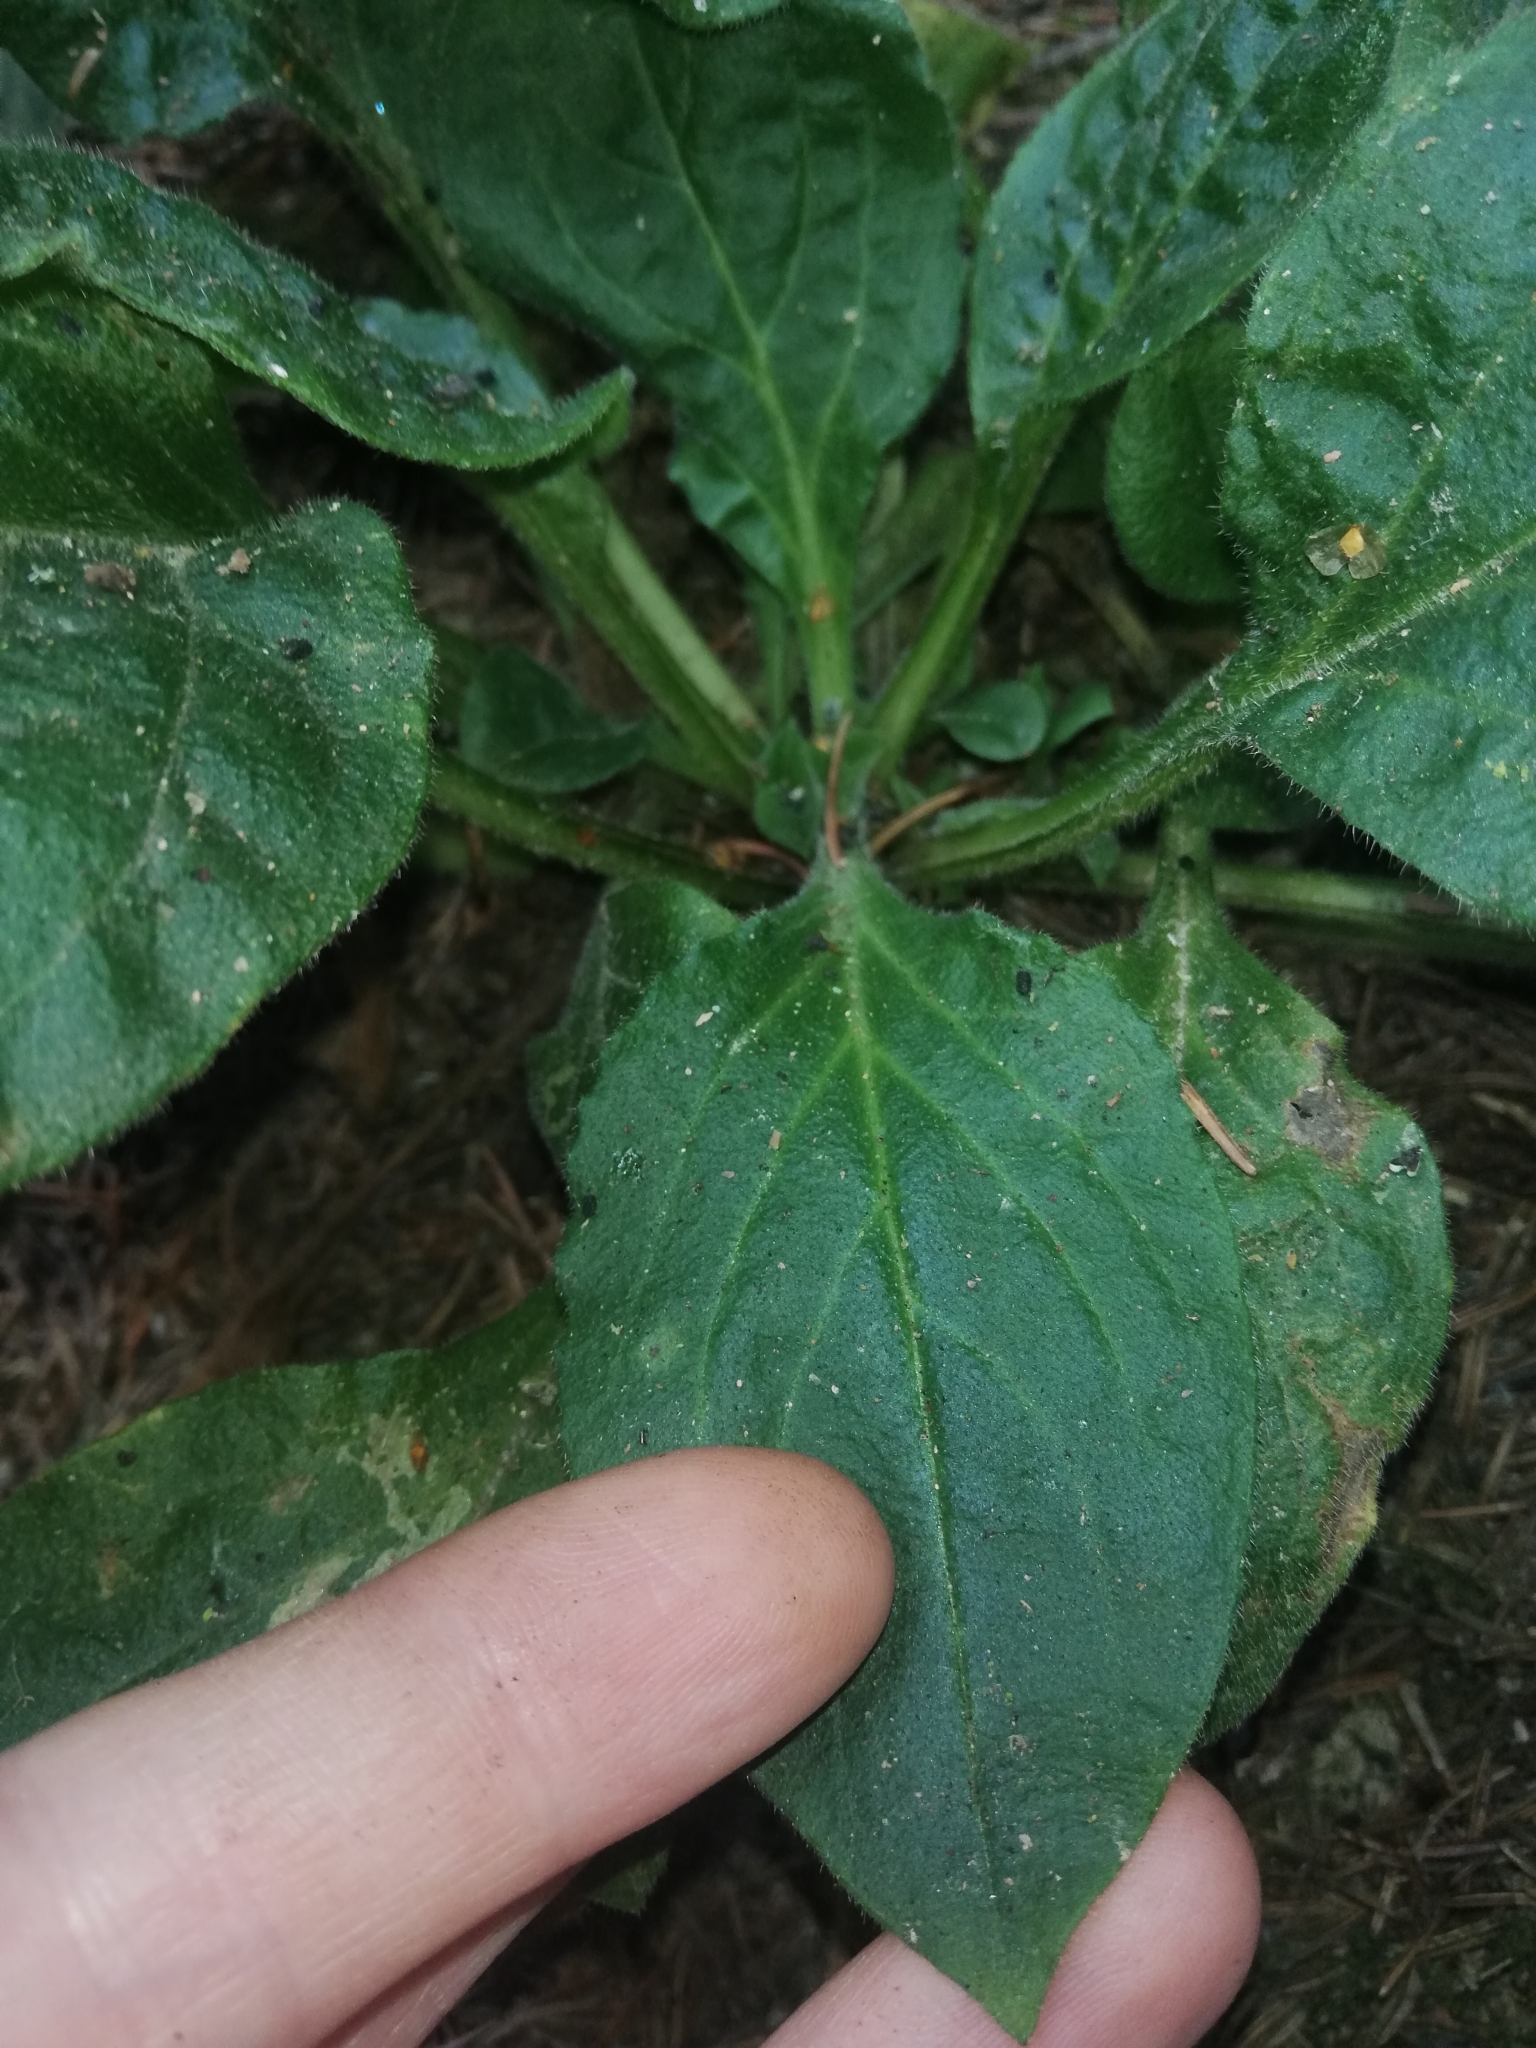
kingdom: Plantae
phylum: Tracheophyta
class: Magnoliopsida
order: Caryophyllales
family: Caryophyllaceae
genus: Silene
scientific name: Silene dioica
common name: Red campion
